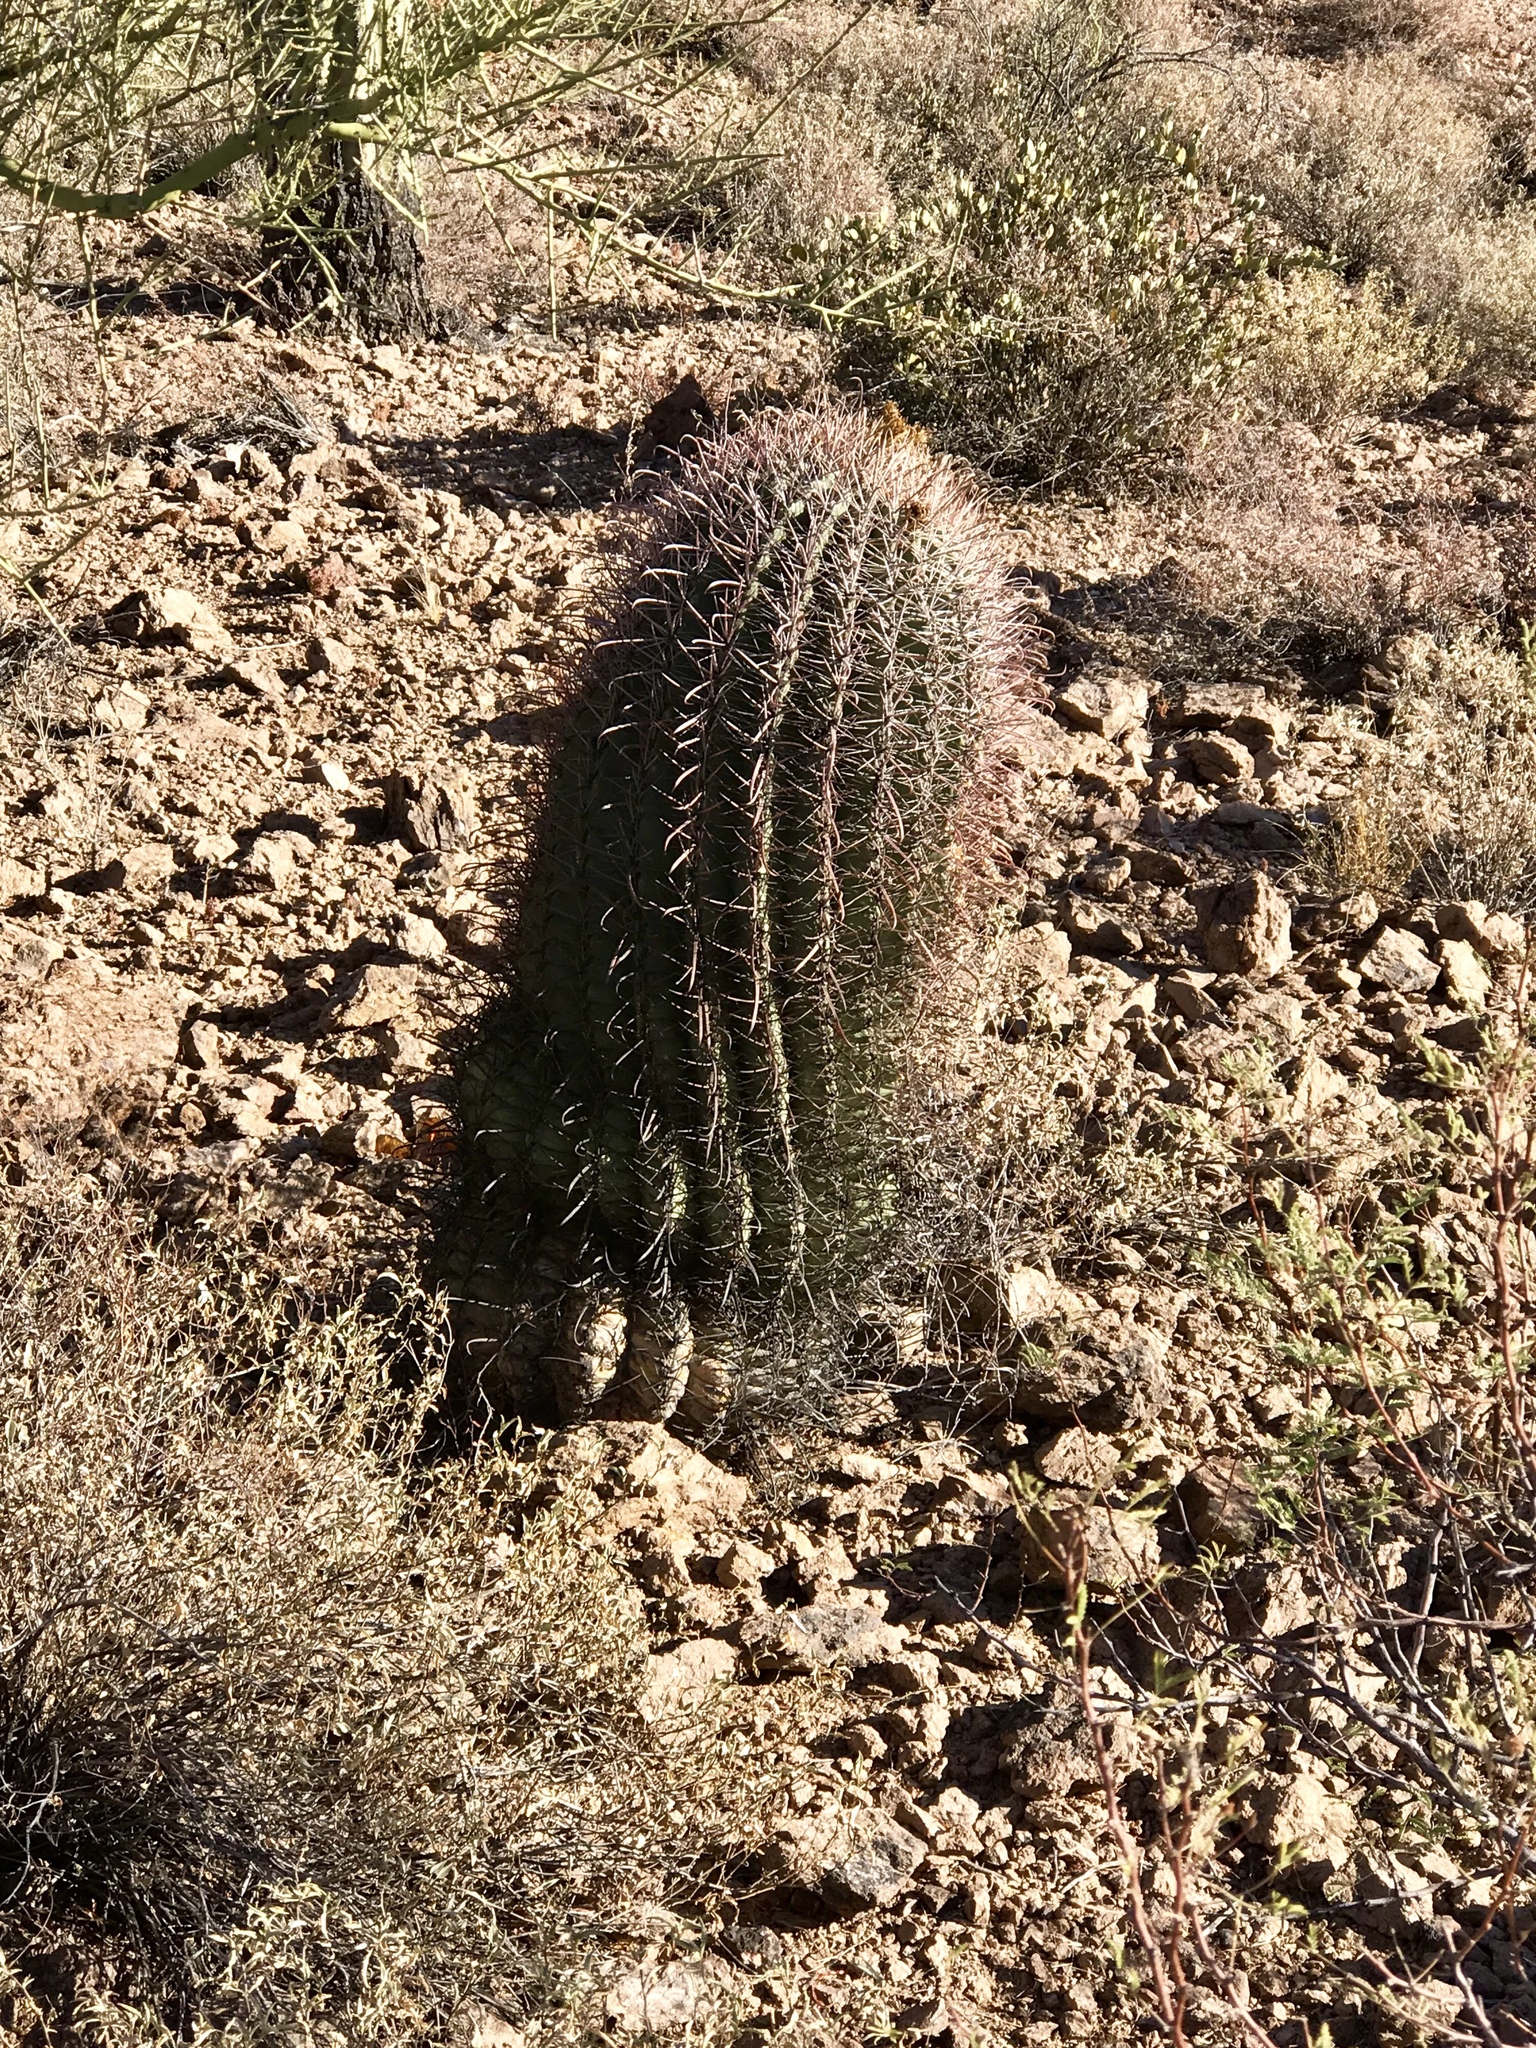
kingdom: Plantae
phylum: Tracheophyta
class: Magnoliopsida
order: Caryophyllales
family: Cactaceae
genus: Ferocactus
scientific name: Ferocactus wislizeni
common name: Candy barrel cactus
